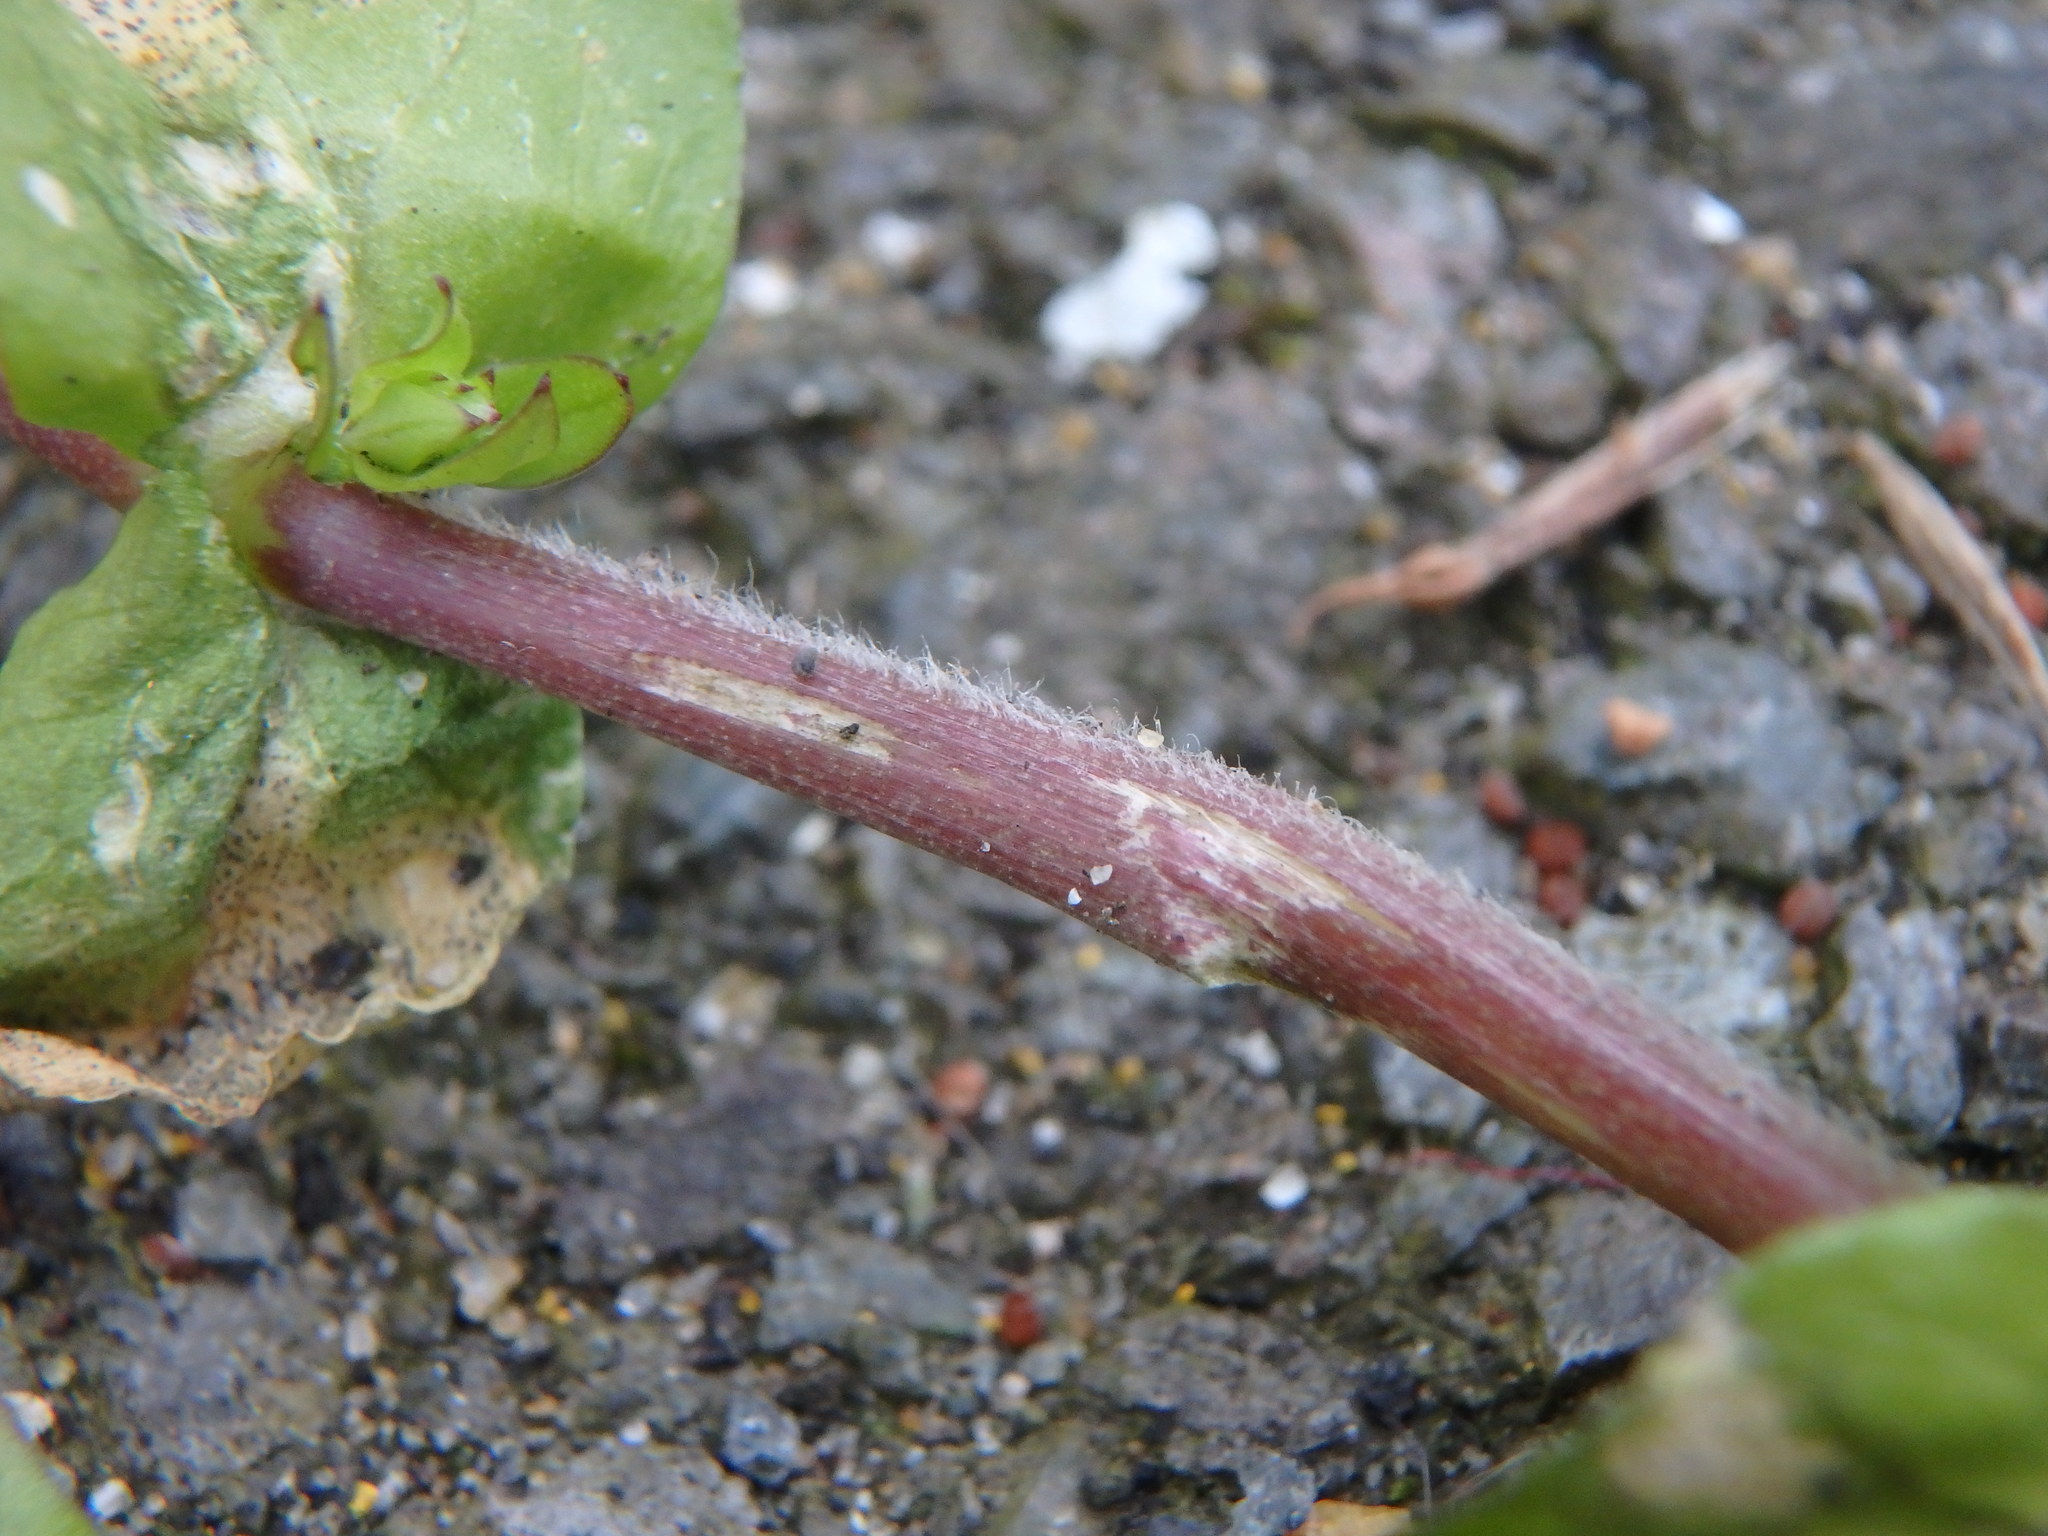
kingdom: Plantae
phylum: Tracheophyta
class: Magnoliopsida
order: Caryophyllales
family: Caryophyllaceae
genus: Stellaria
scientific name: Stellaria media
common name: Common chickweed
